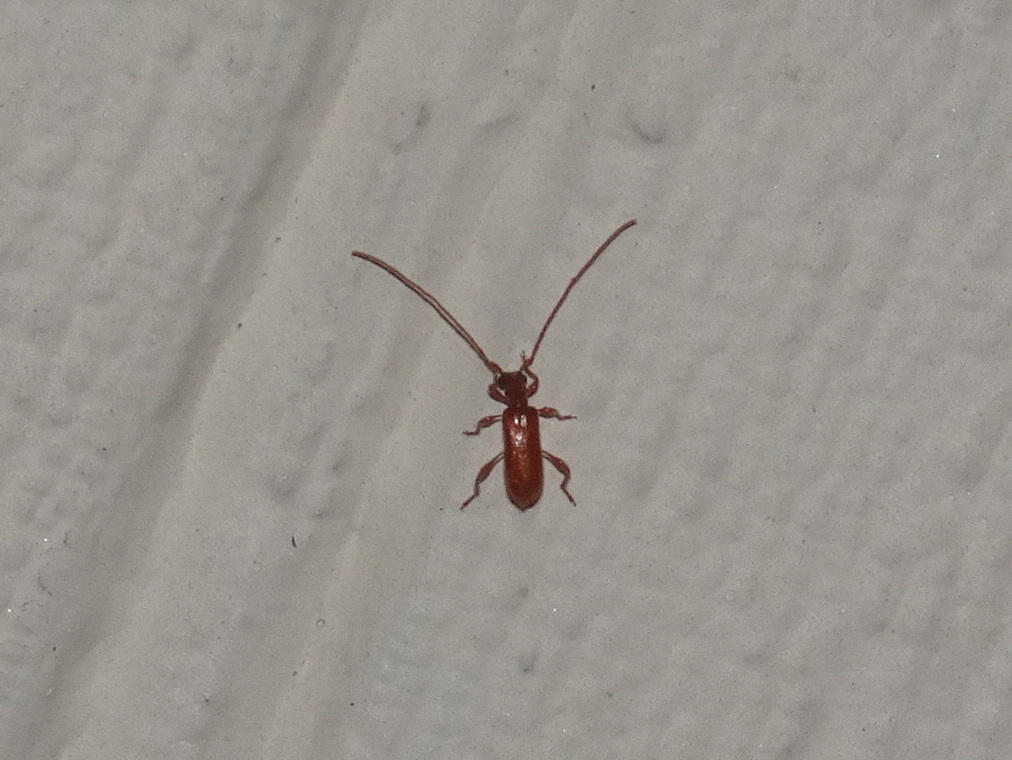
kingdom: Animalia
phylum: Arthropoda
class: Insecta
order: Coleoptera
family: Cerambycidae
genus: Obrium
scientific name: Obrium rufulum
